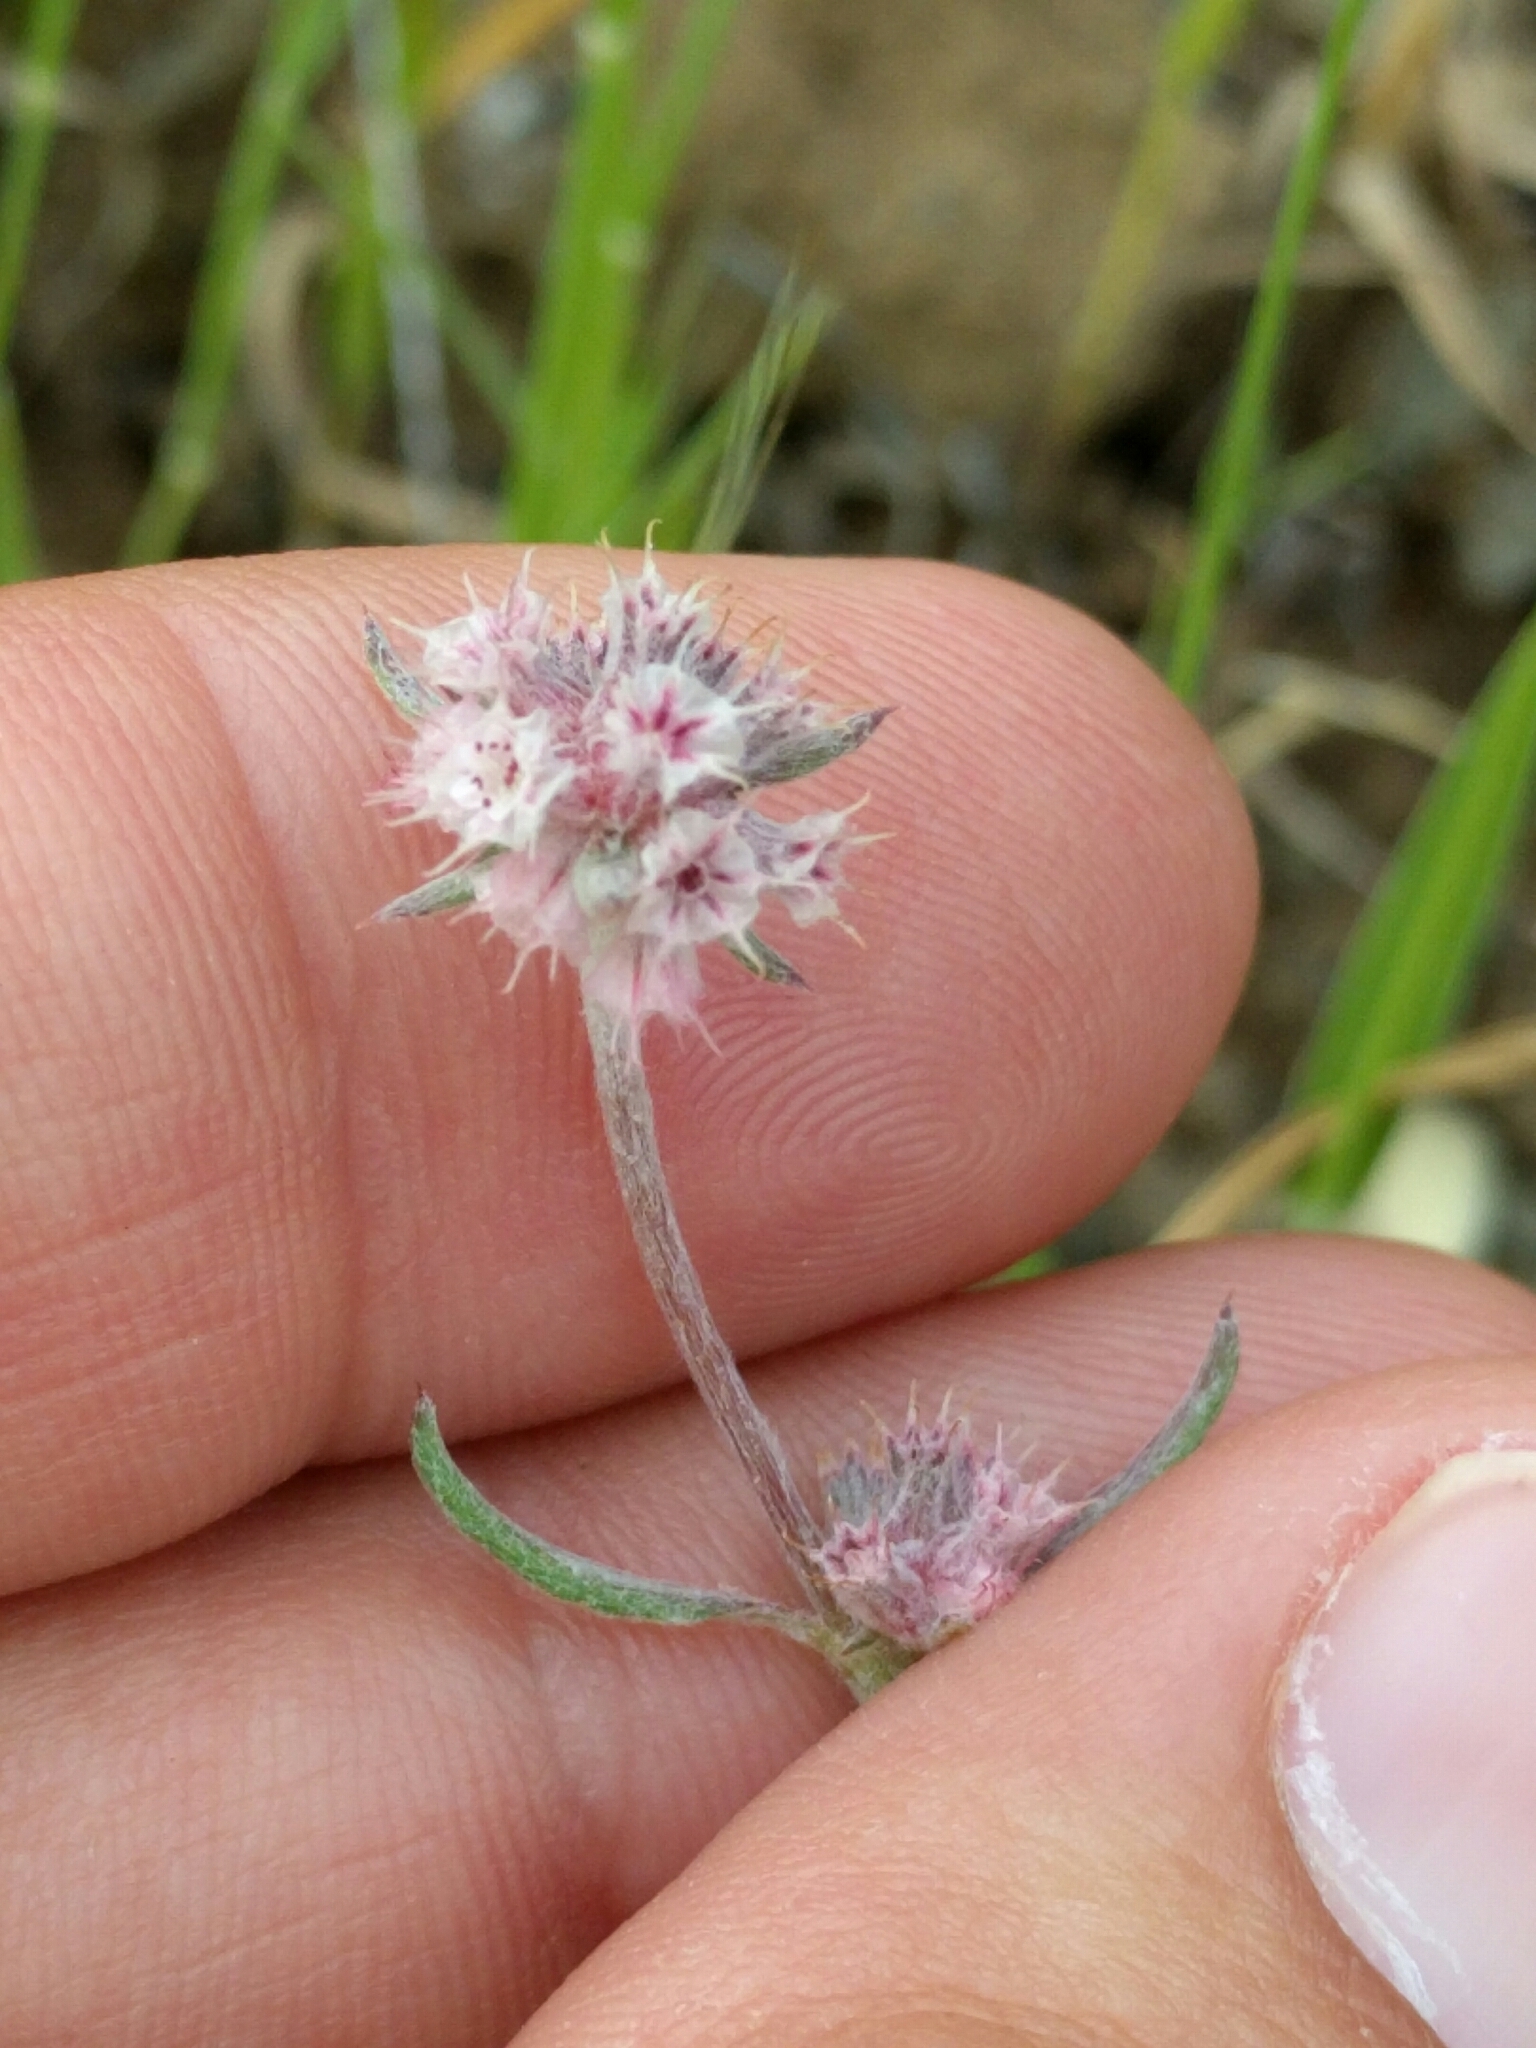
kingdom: Plantae
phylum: Tracheophyta
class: Magnoliopsida
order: Caryophyllales
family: Polygonaceae
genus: Chorizanthe
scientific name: Chorizanthe membranacea
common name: Pink spineflower
